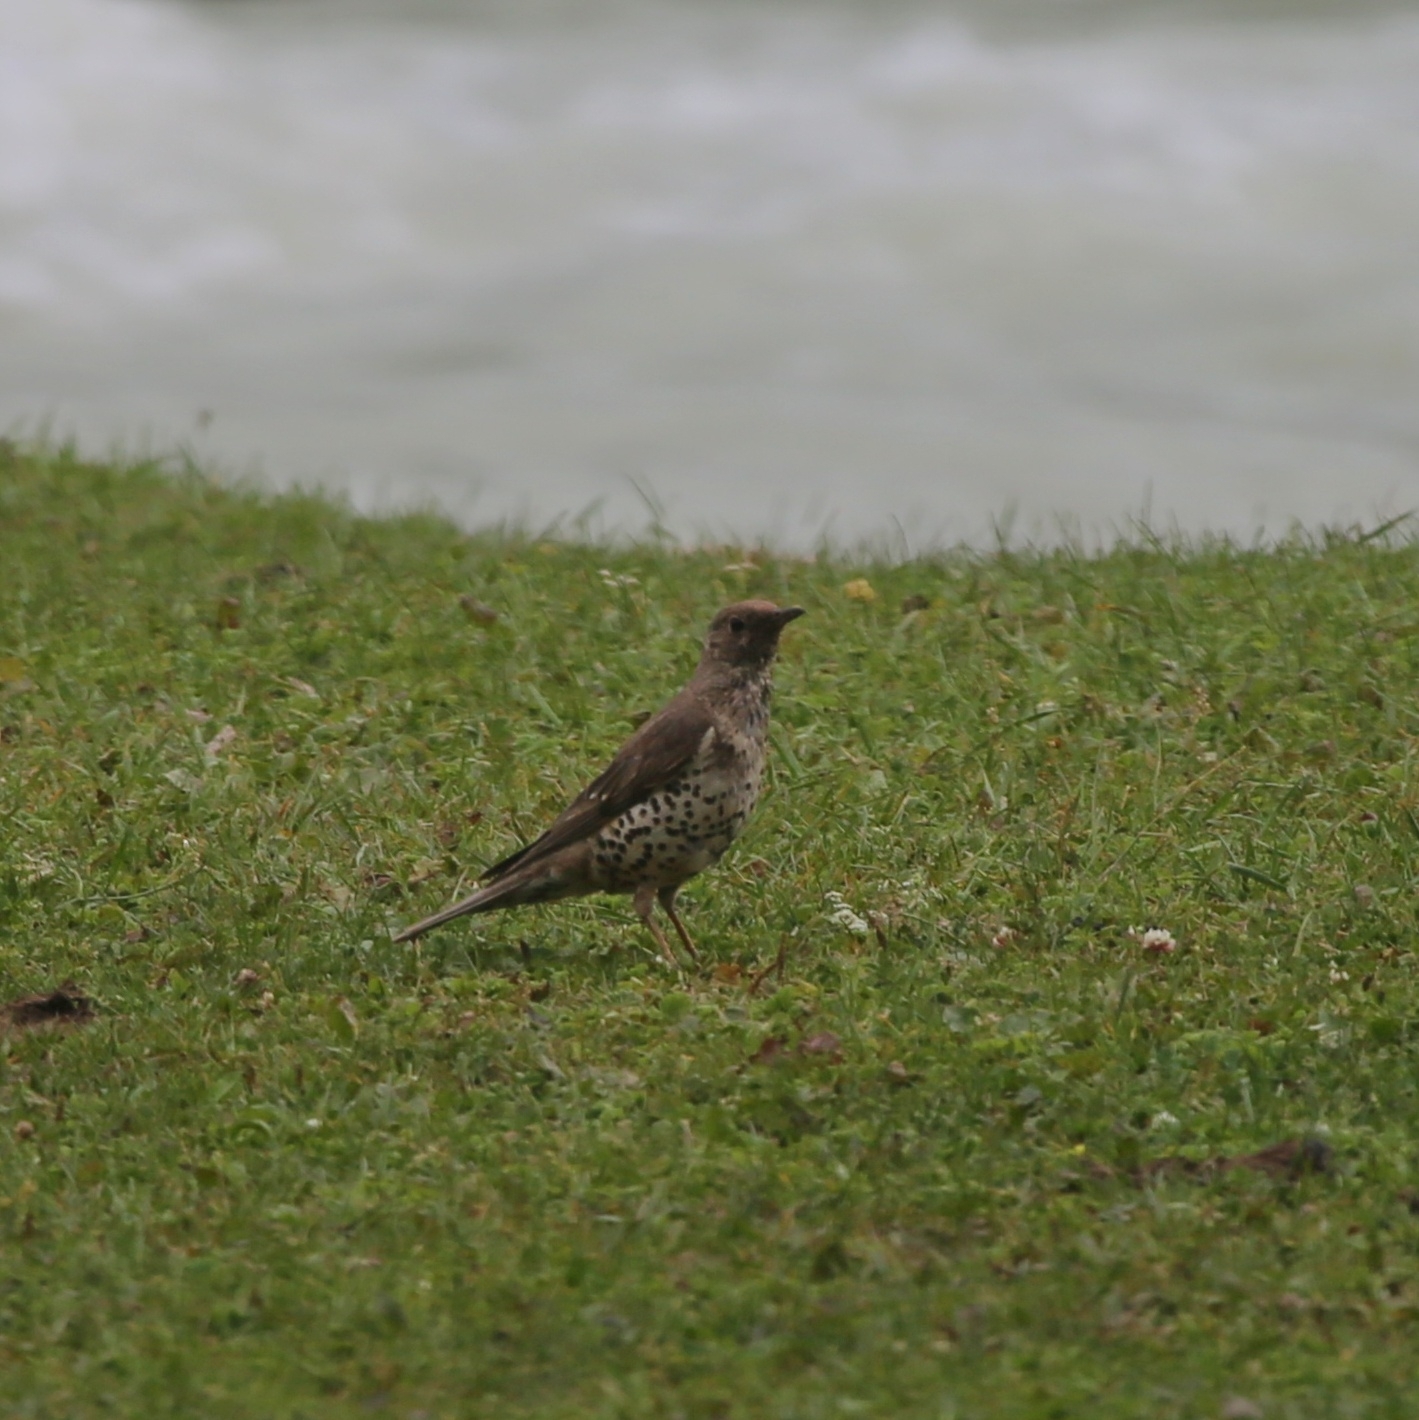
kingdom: Animalia
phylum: Chordata
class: Aves
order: Passeriformes
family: Turdidae
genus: Turdus
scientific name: Turdus viscivorus
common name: Mistle thrush
